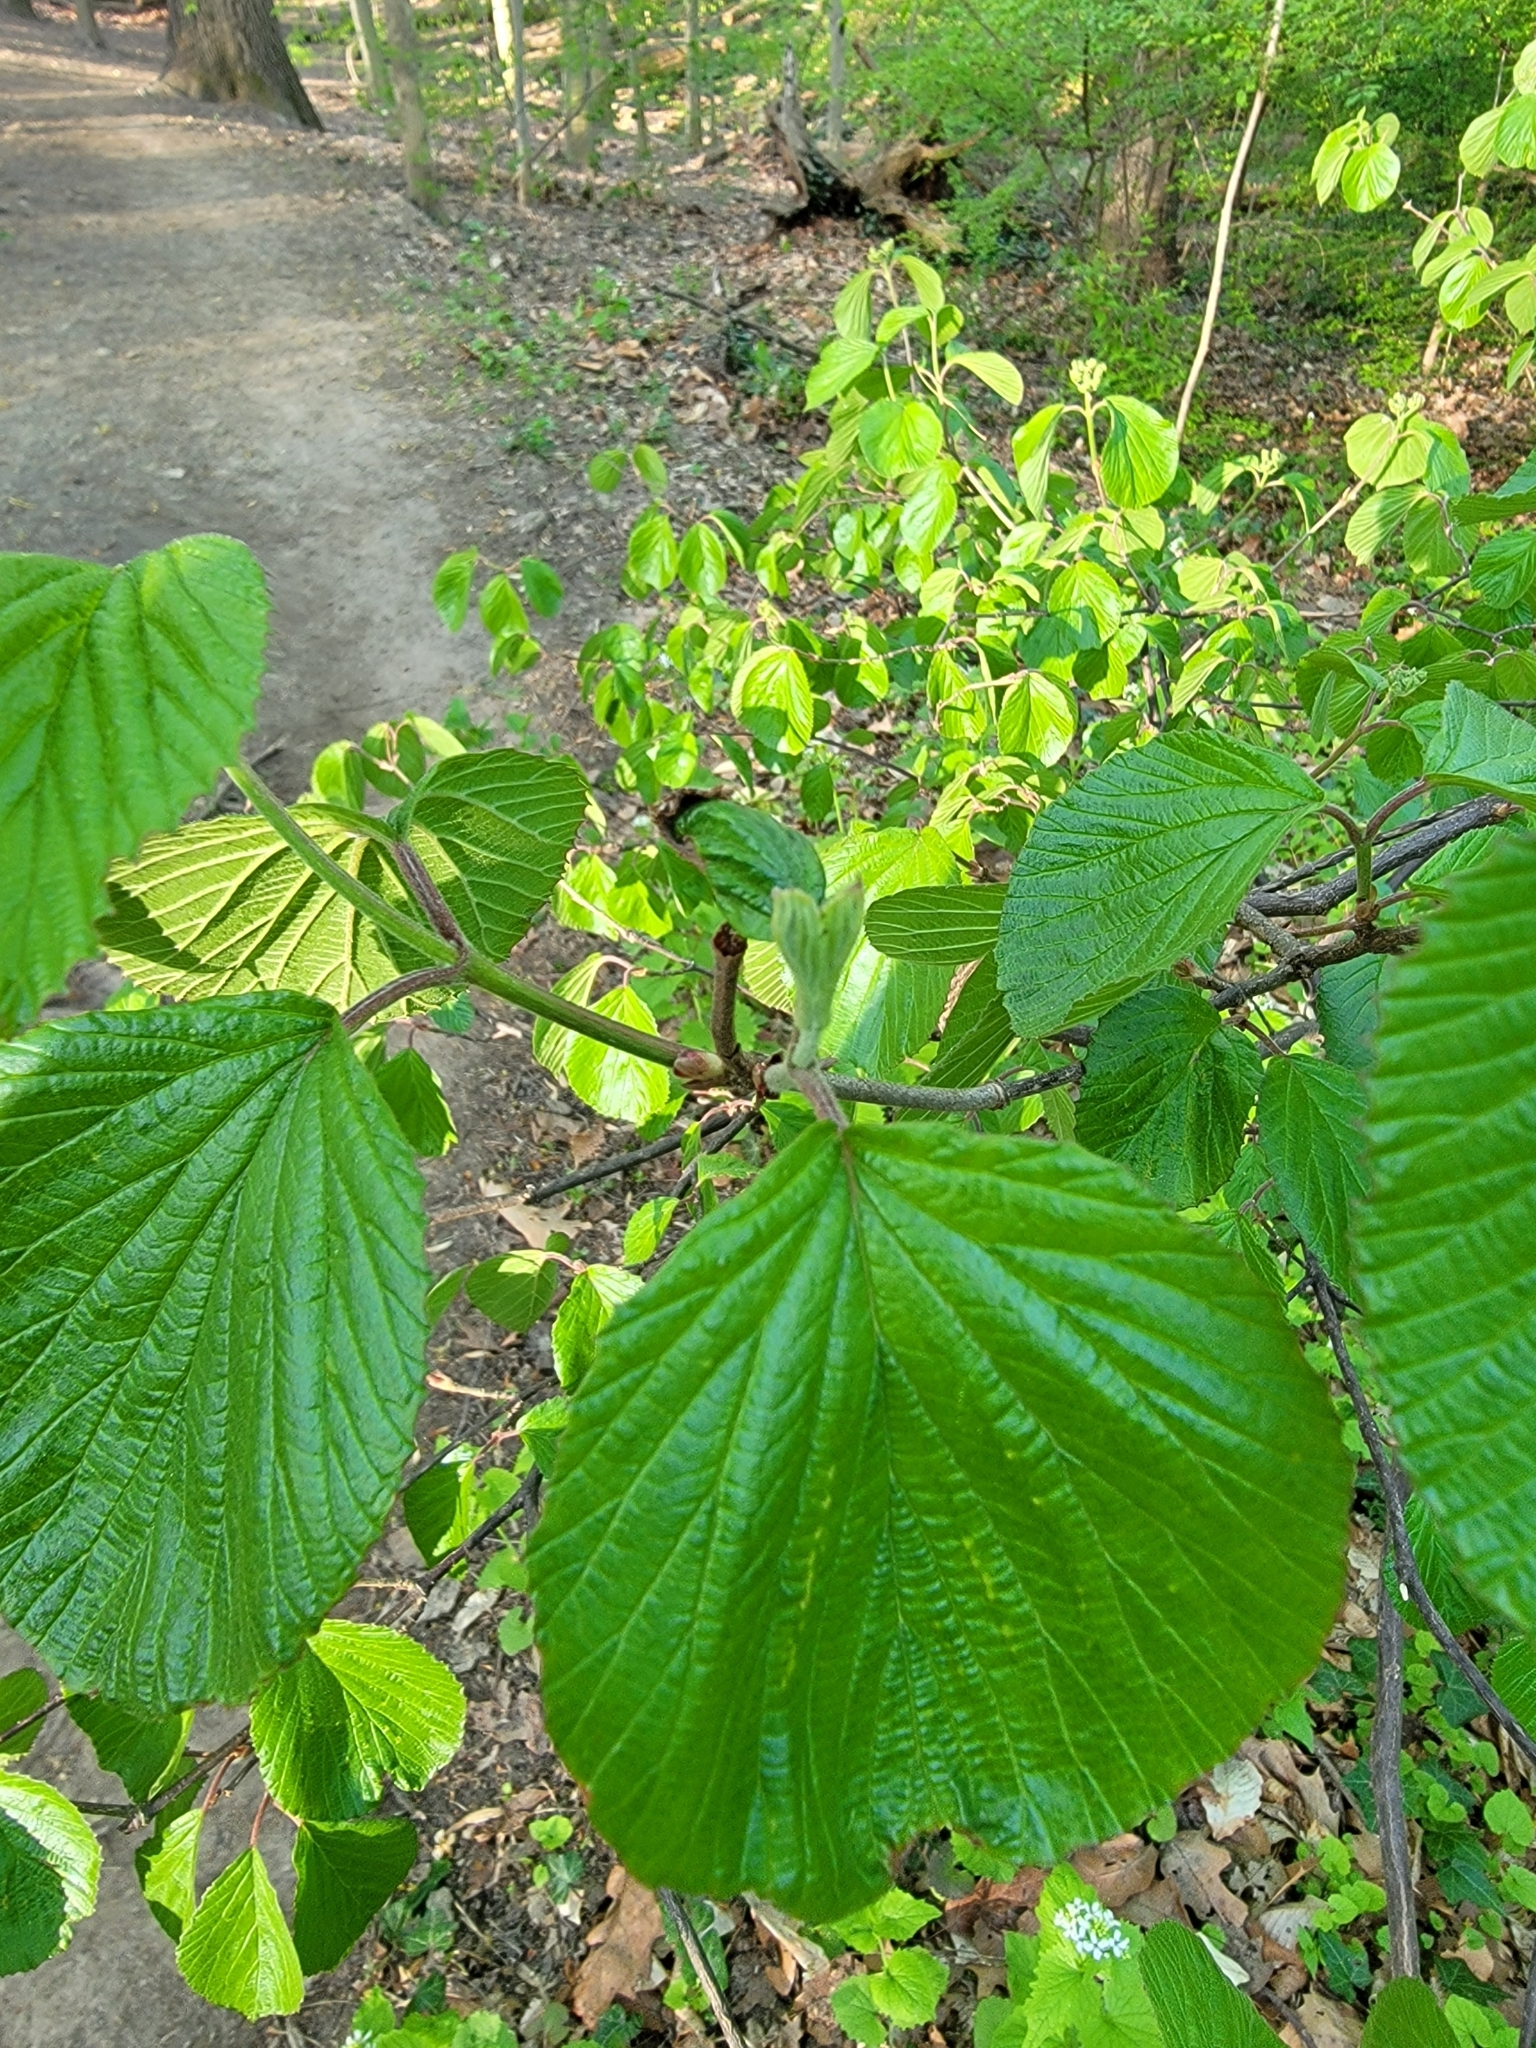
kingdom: Plantae
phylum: Tracheophyta
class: Magnoliopsida
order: Dipsacales
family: Viburnaceae
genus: Viburnum
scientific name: Viburnum dilatatum
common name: Linden arrowwood
